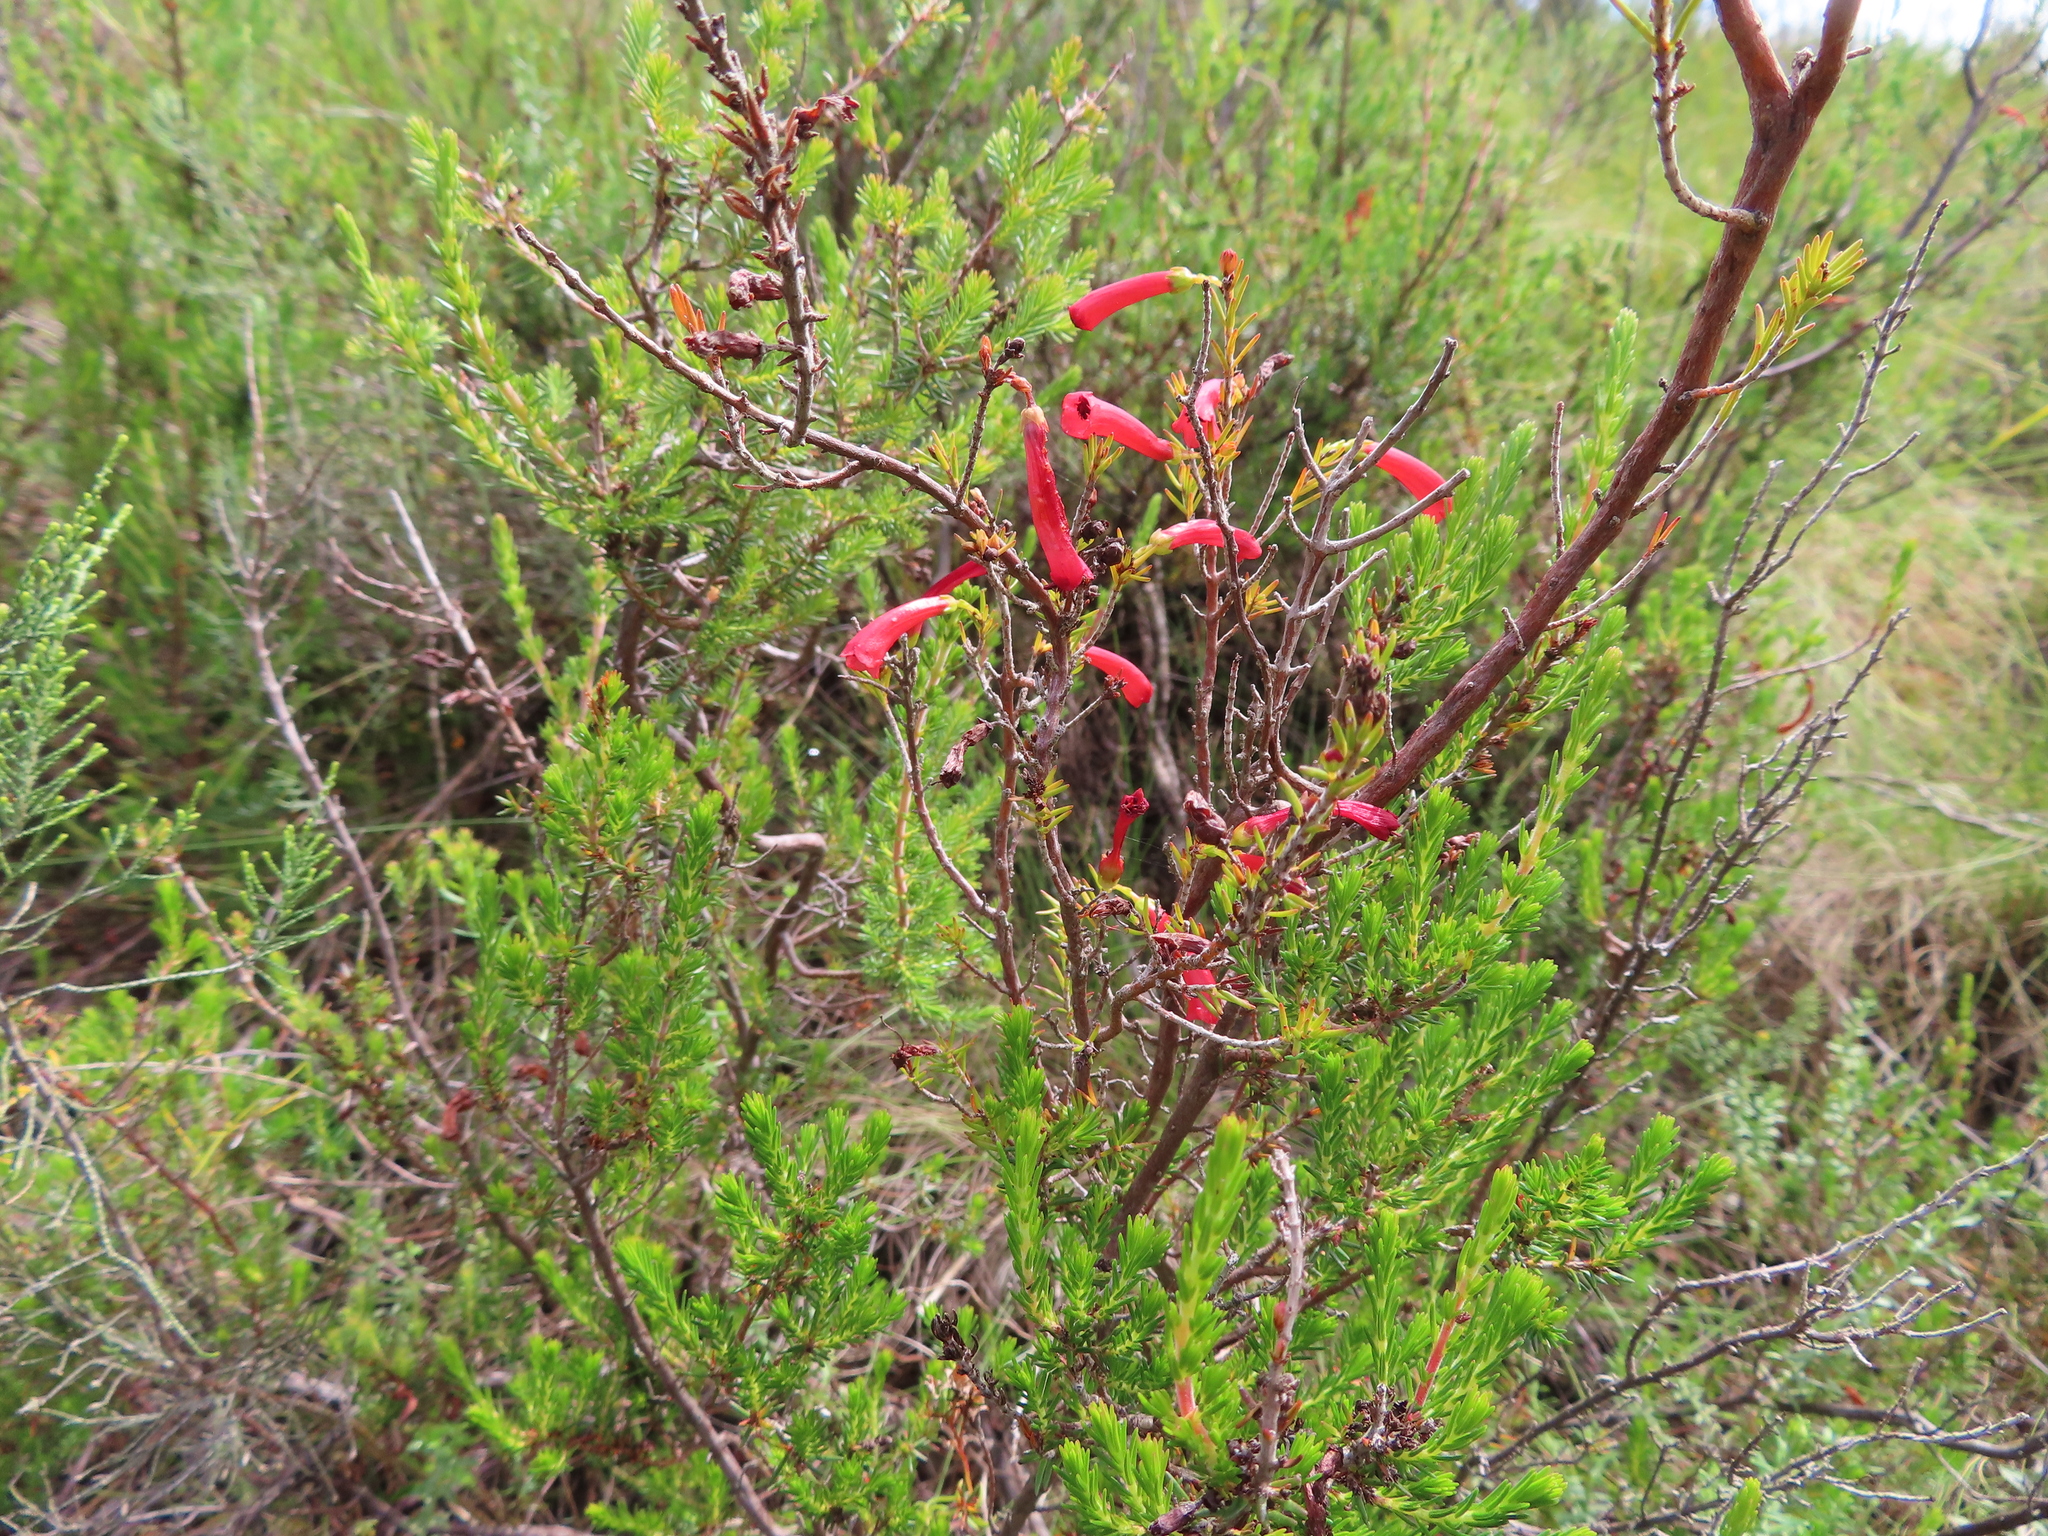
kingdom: Plantae
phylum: Tracheophyta
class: Magnoliopsida
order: Ericales
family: Ericaceae
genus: Erica
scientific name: Erica cruenta
